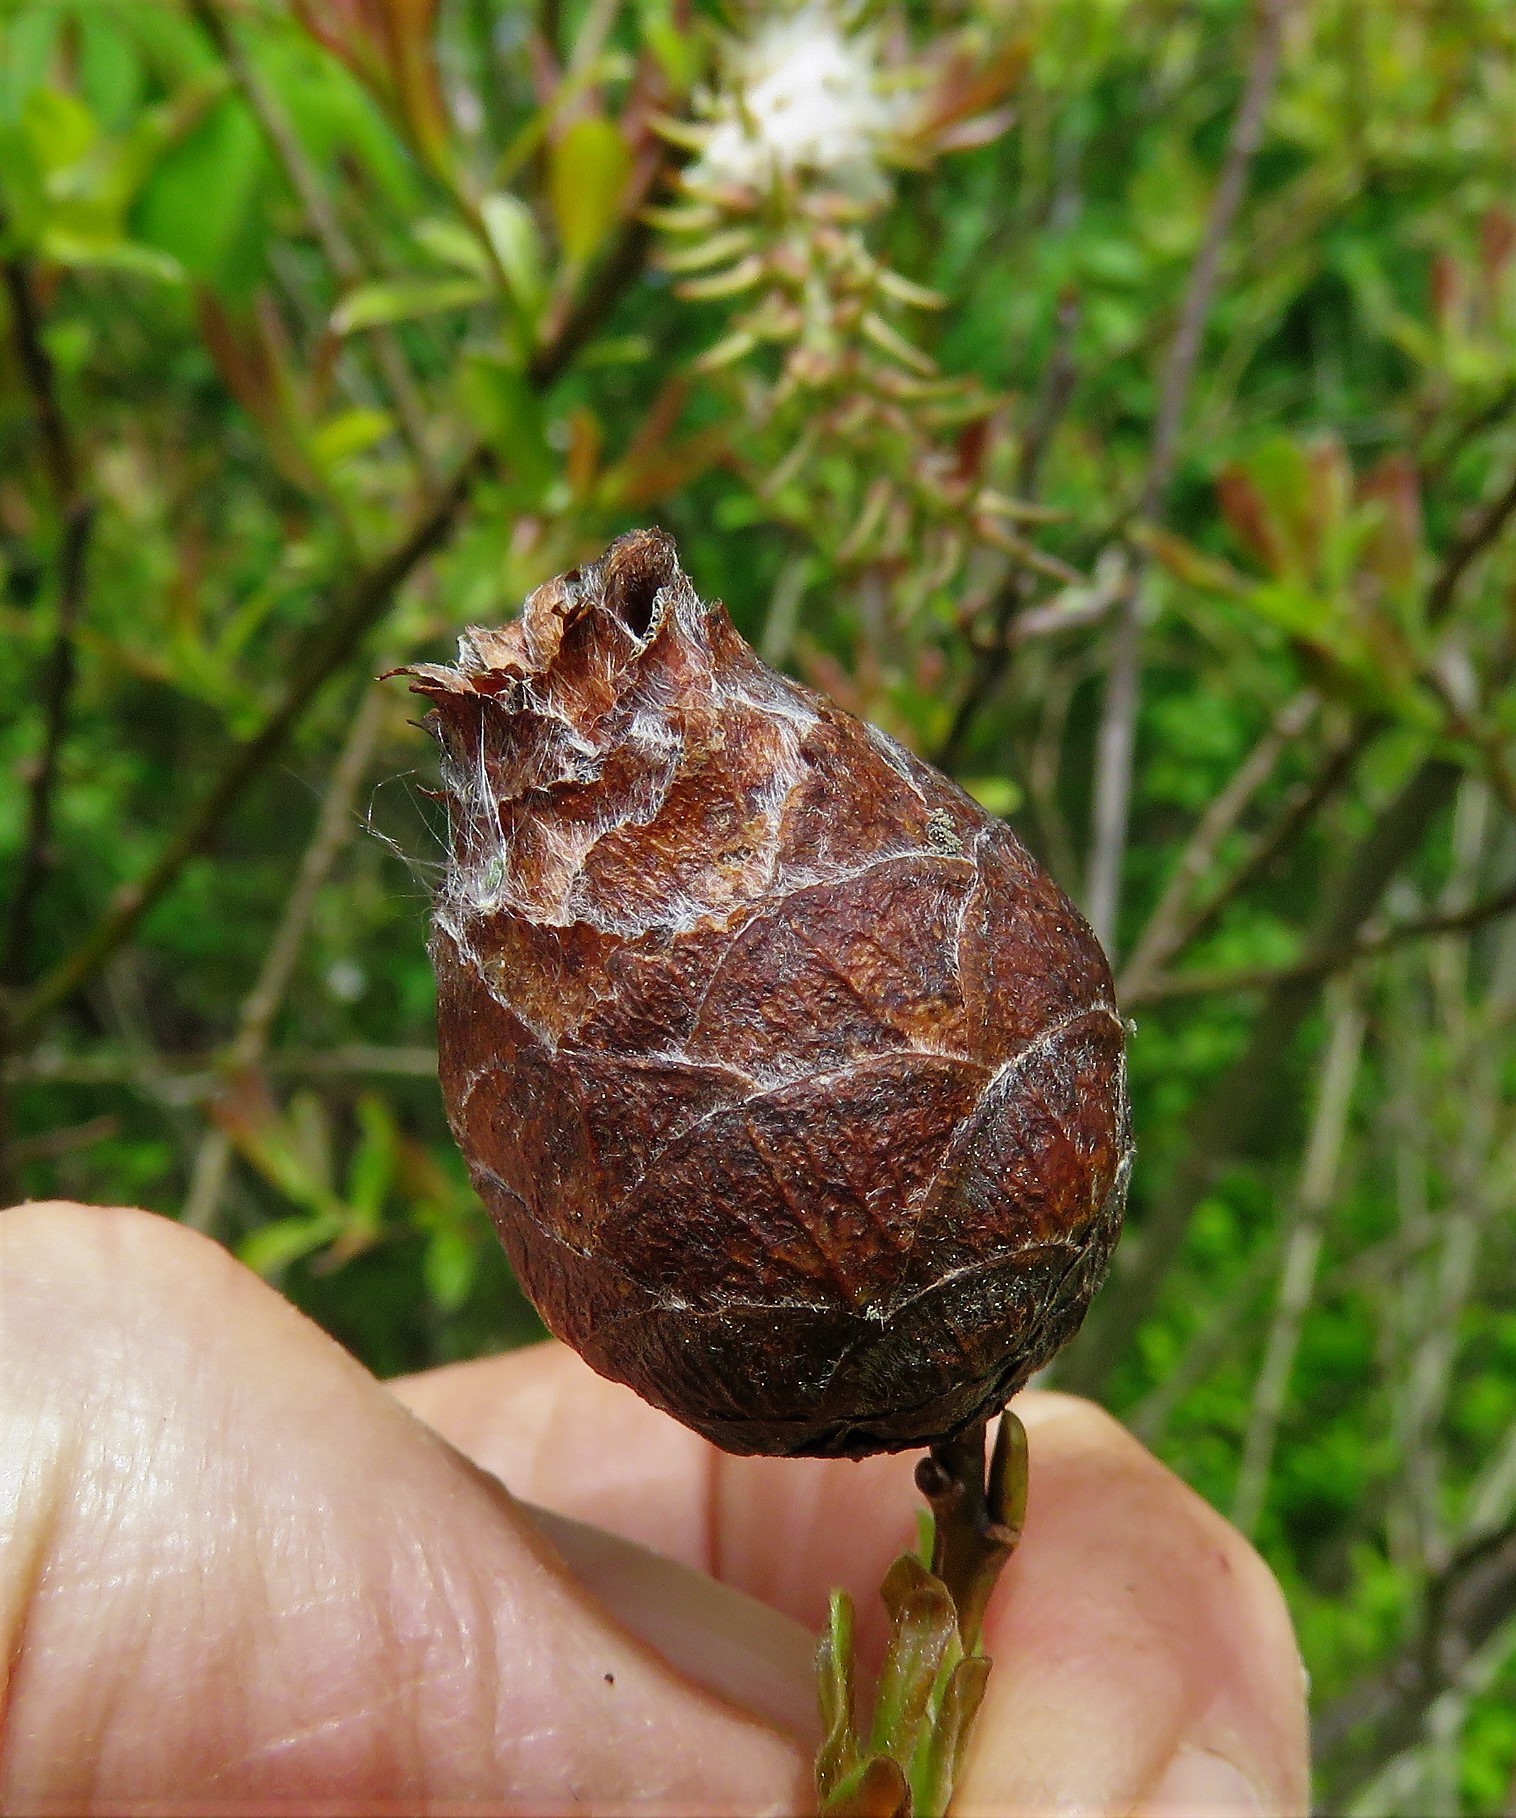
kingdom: Animalia
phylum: Arthropoda
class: Insecta
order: Diptera
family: Cecidomyiidae
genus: Rabdophaga
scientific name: Rabdophaga strobiloides
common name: Willow pinecone gall midge
